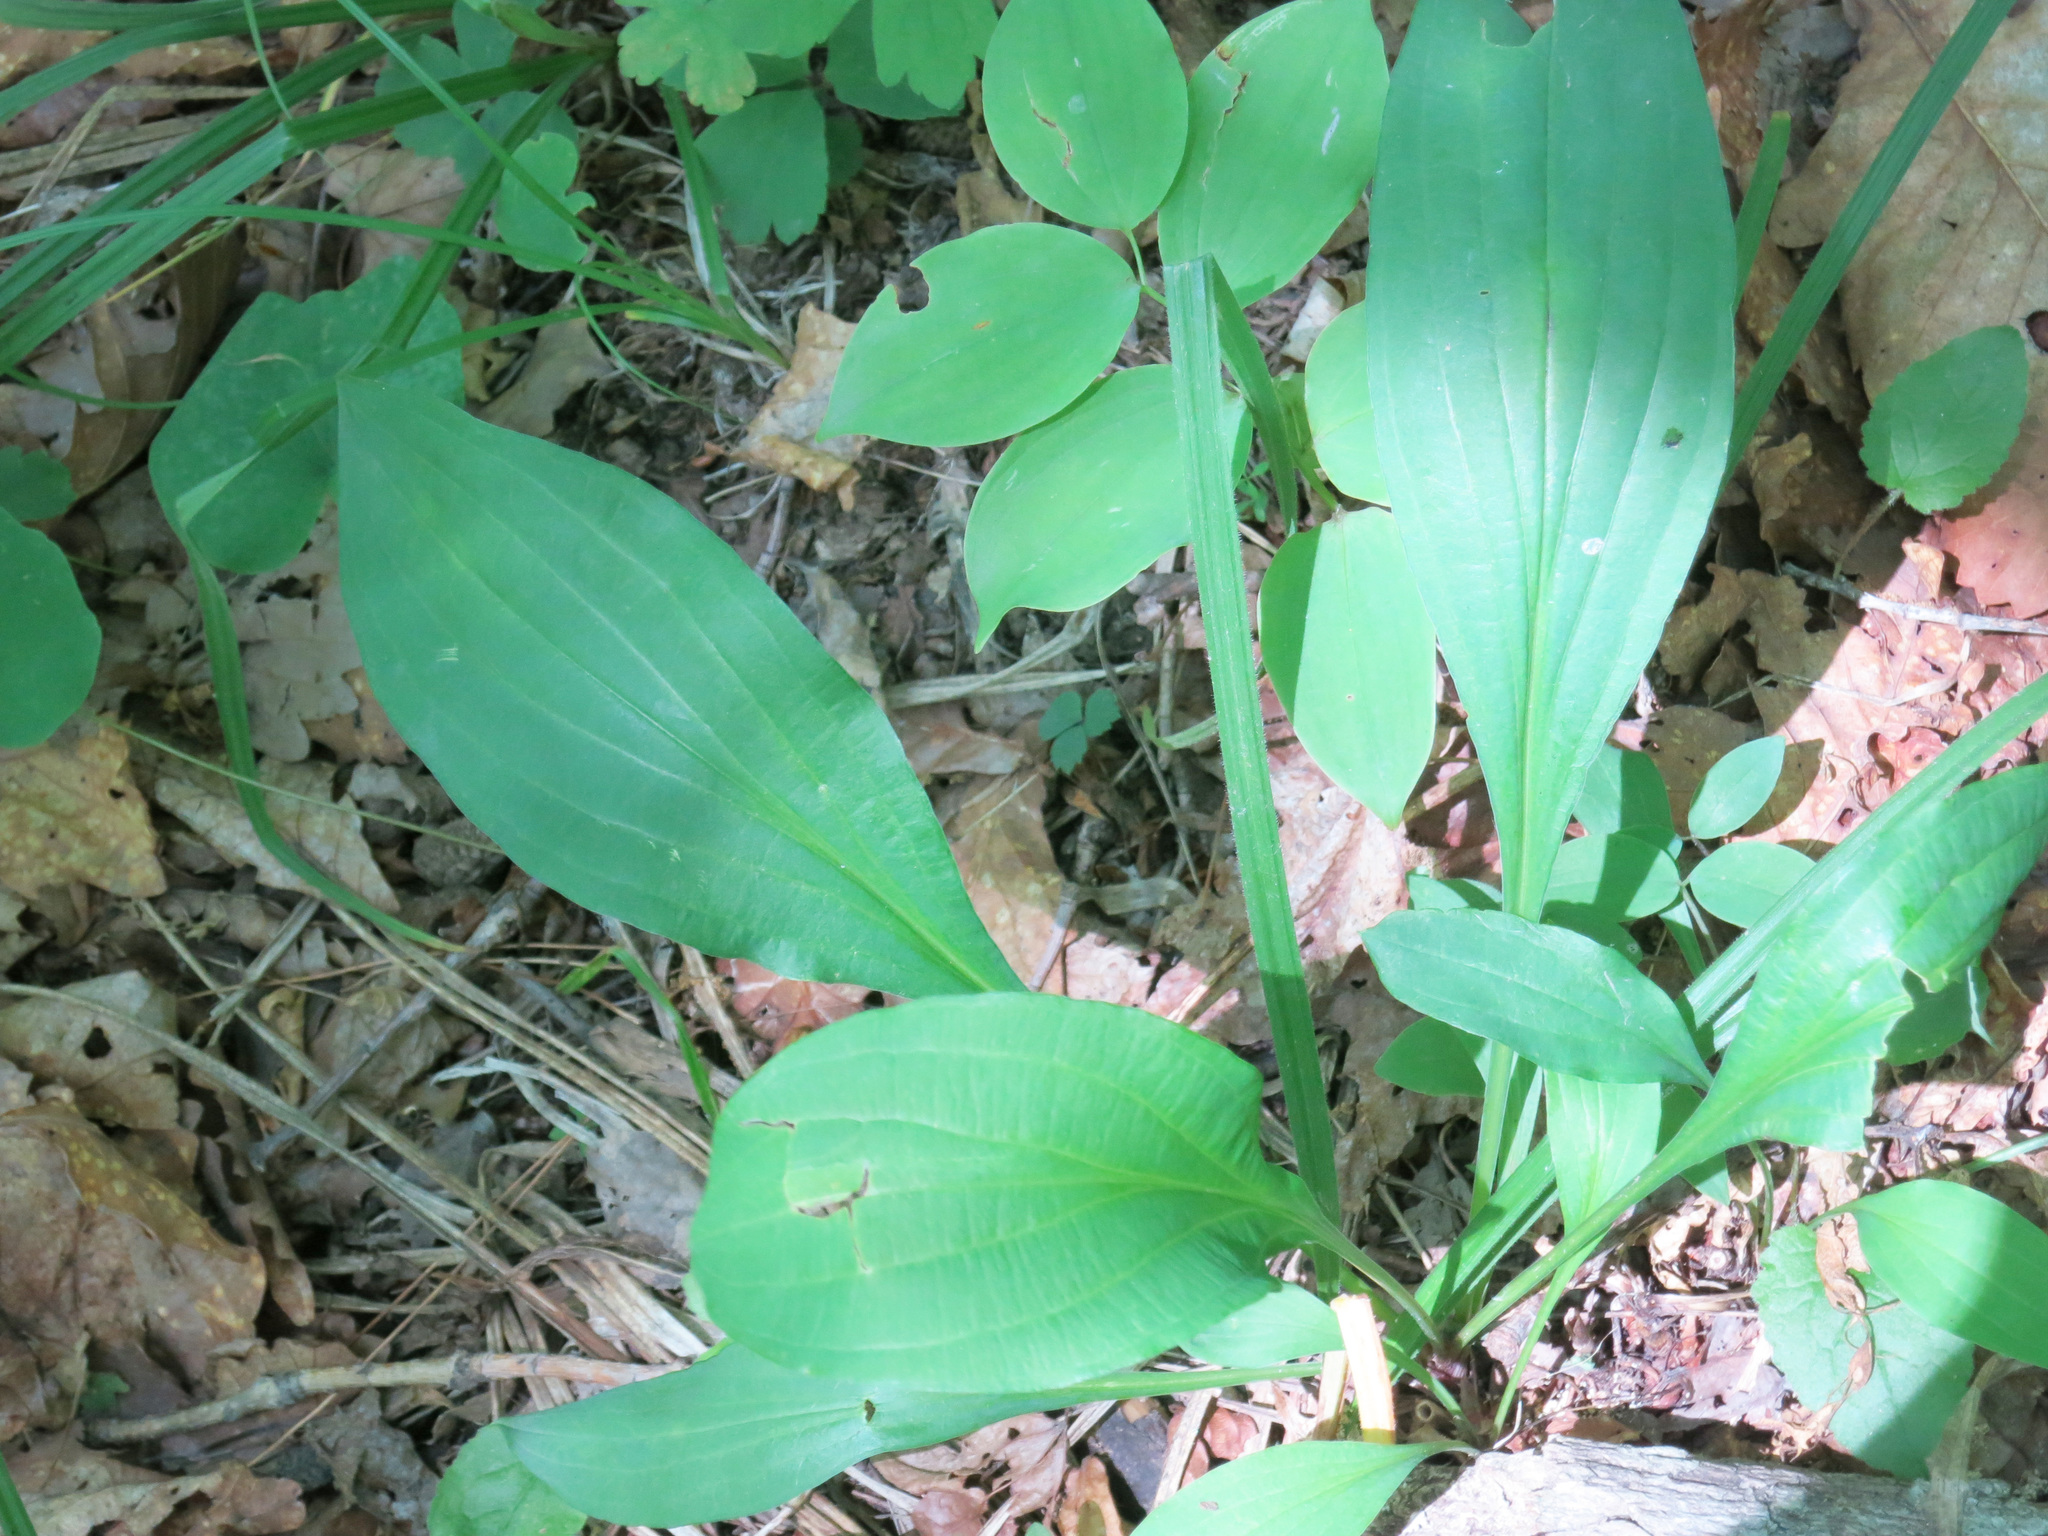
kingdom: Plantae
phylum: Tracheophyta
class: Magnoliopsida
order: Apiales
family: Apiaceae
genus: Bupleurum
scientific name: Bupleurum longiradiatum
